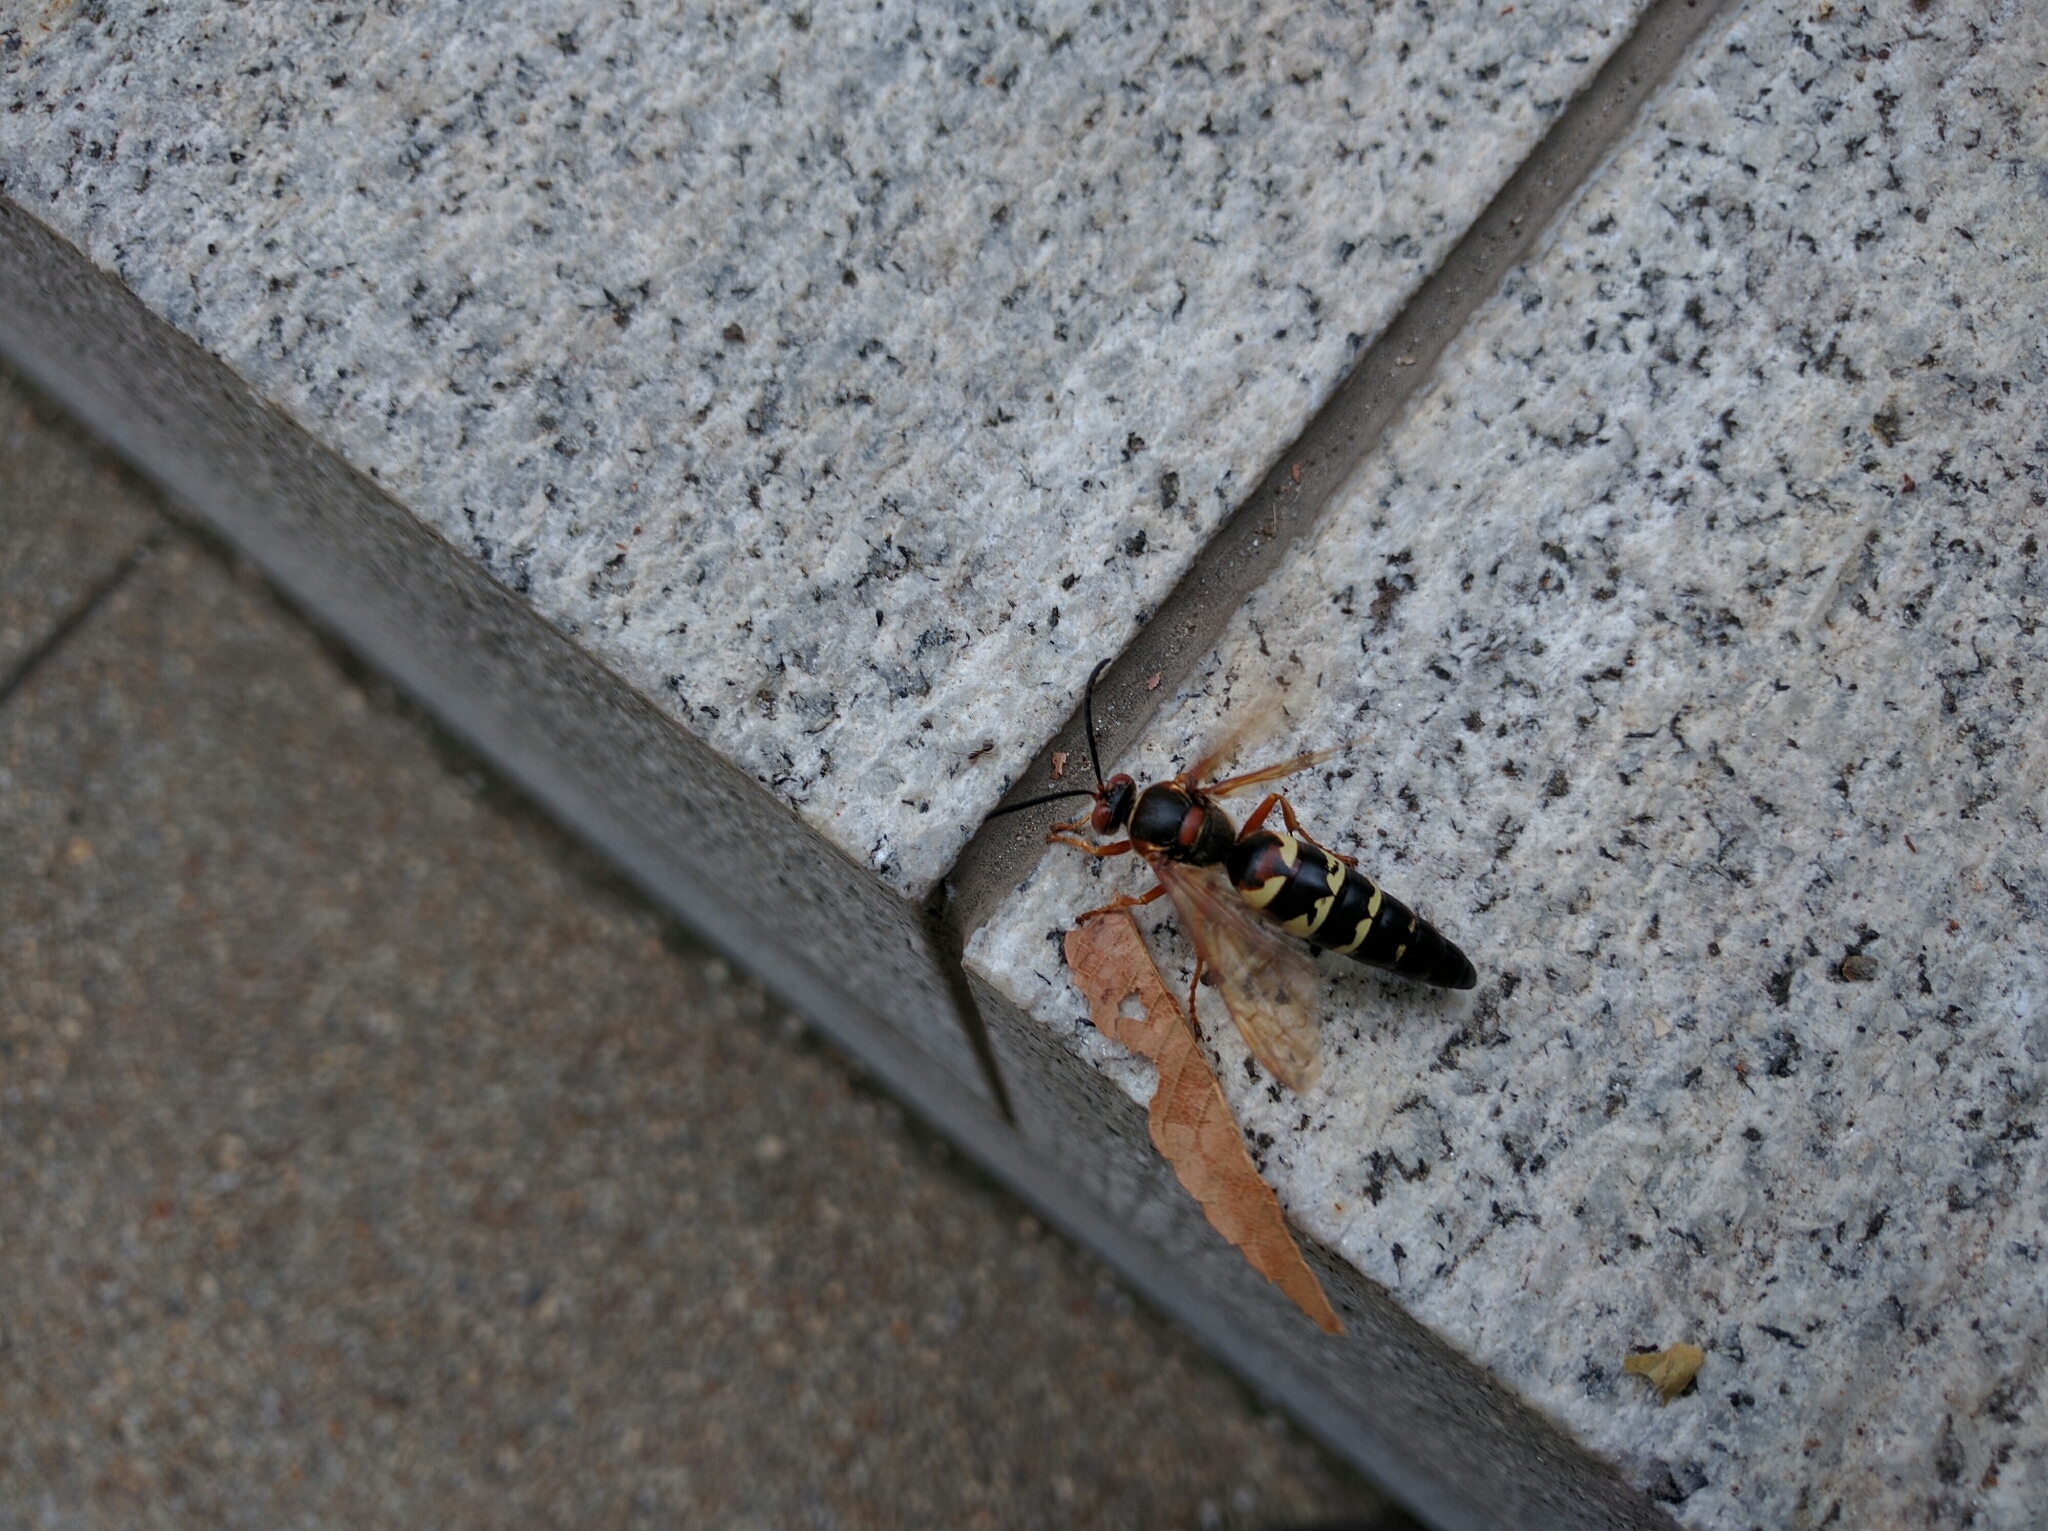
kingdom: Animalia
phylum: Arthropoda
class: Insecta
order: Hymenoptera
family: Crabronidae
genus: Sphecius
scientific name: Sphecius speciosus
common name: Cicada killer
